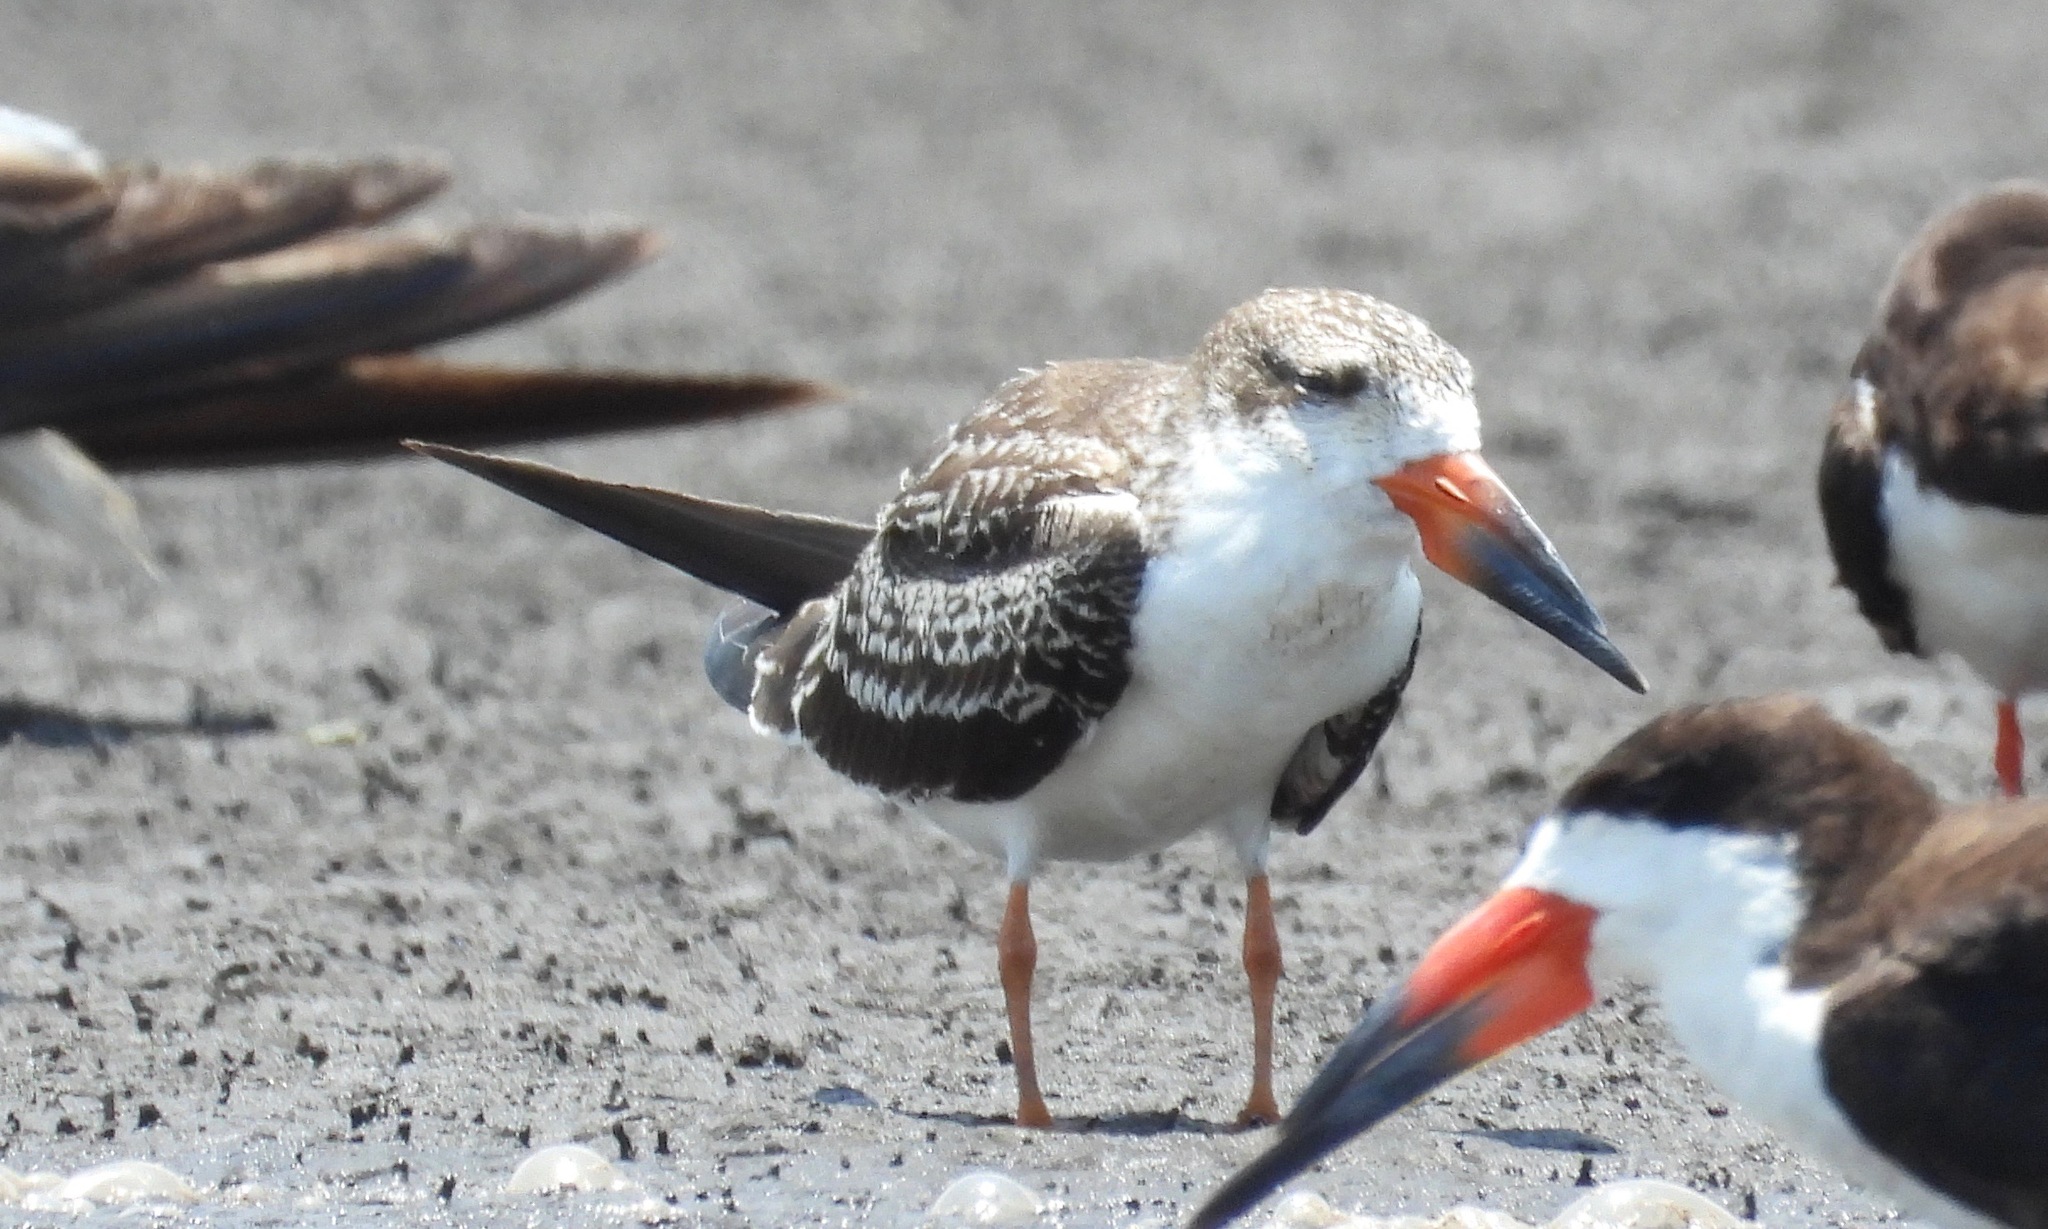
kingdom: Animalia
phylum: Chordata
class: Aves
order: Charadriiformes
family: Laridae
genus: Rynchops
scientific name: Rynchops niger
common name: Black skimmer
